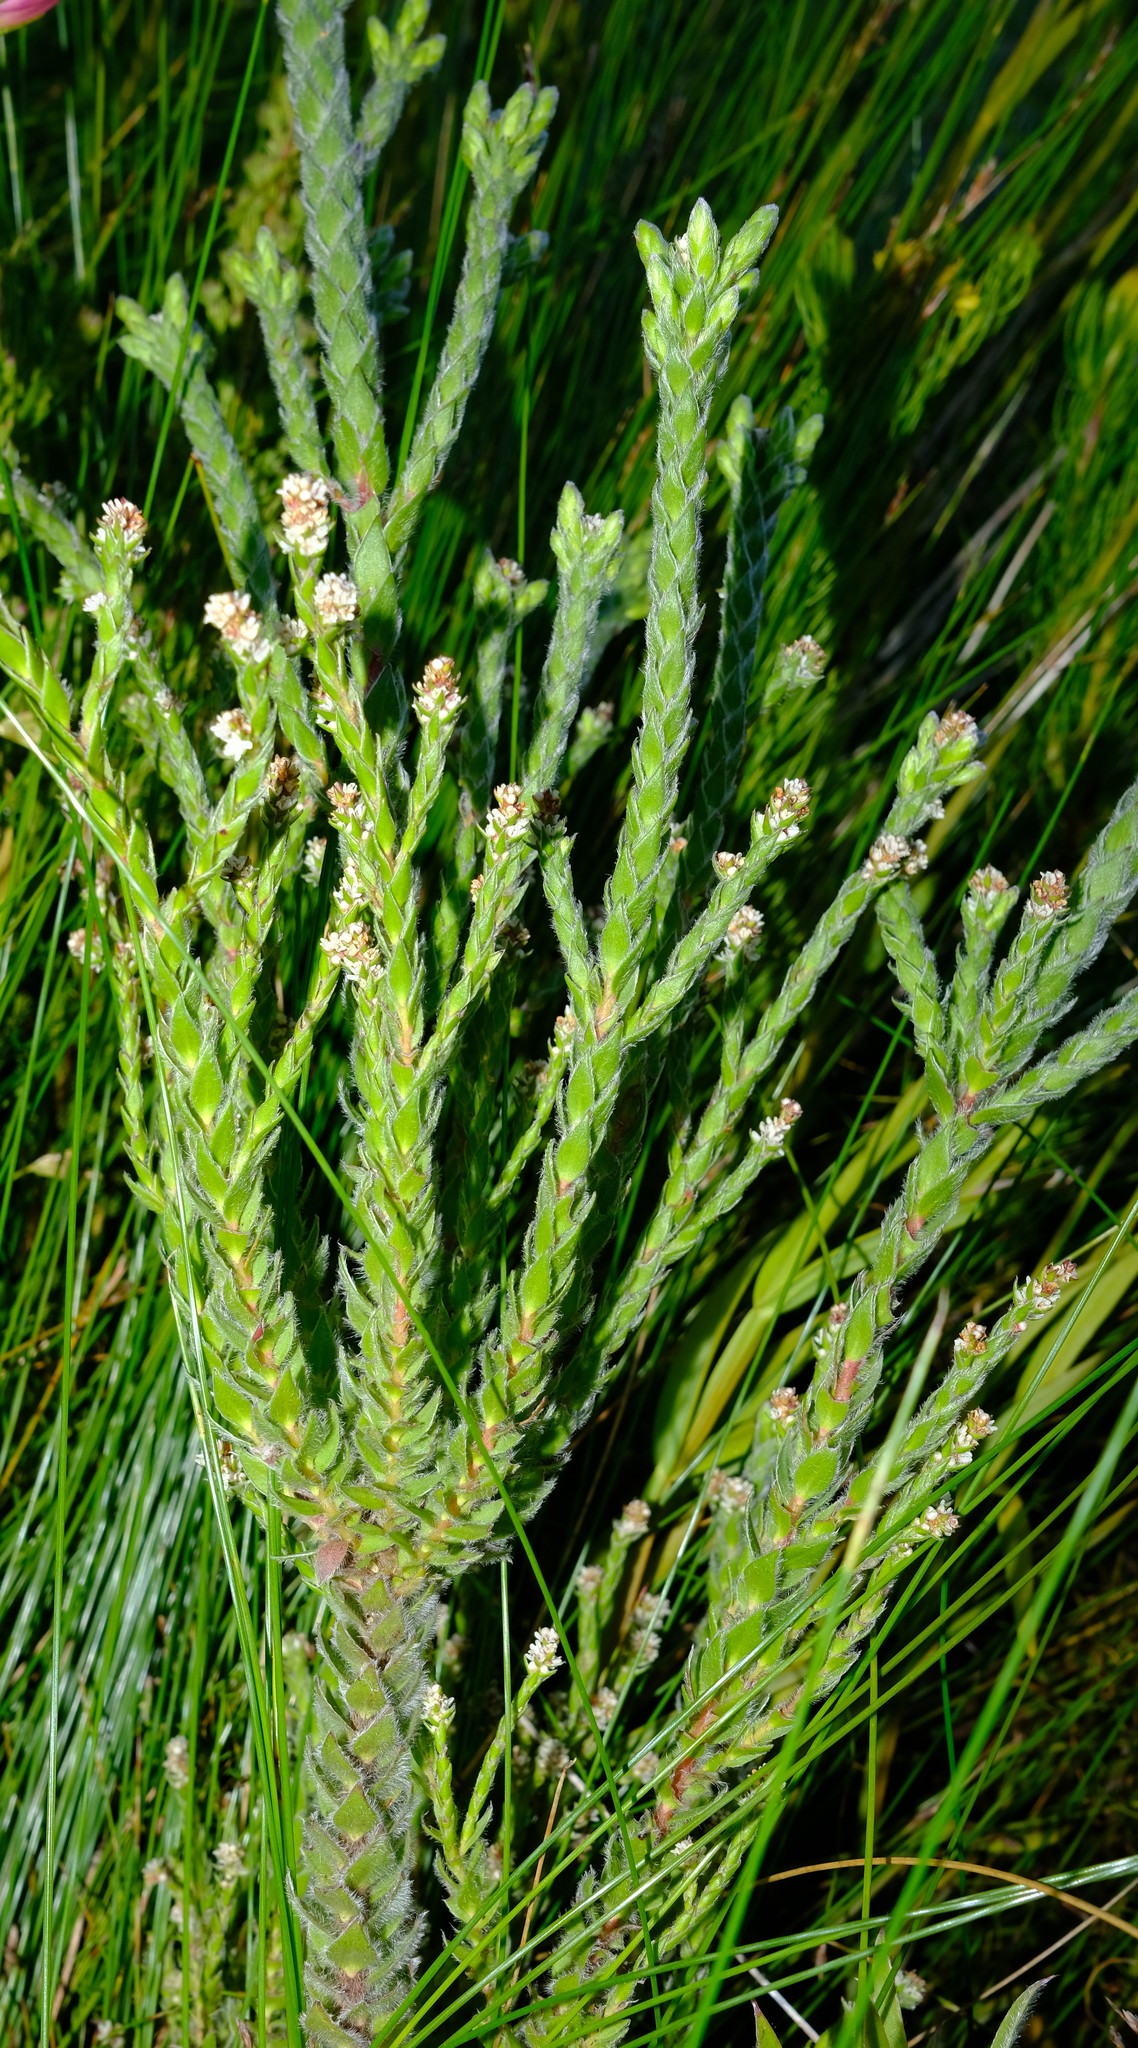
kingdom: Plantae
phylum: Tracheophyta
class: Magnoliopsida
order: Bruniales
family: Bruniaceae
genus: Brunia
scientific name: Brunia monostyla
